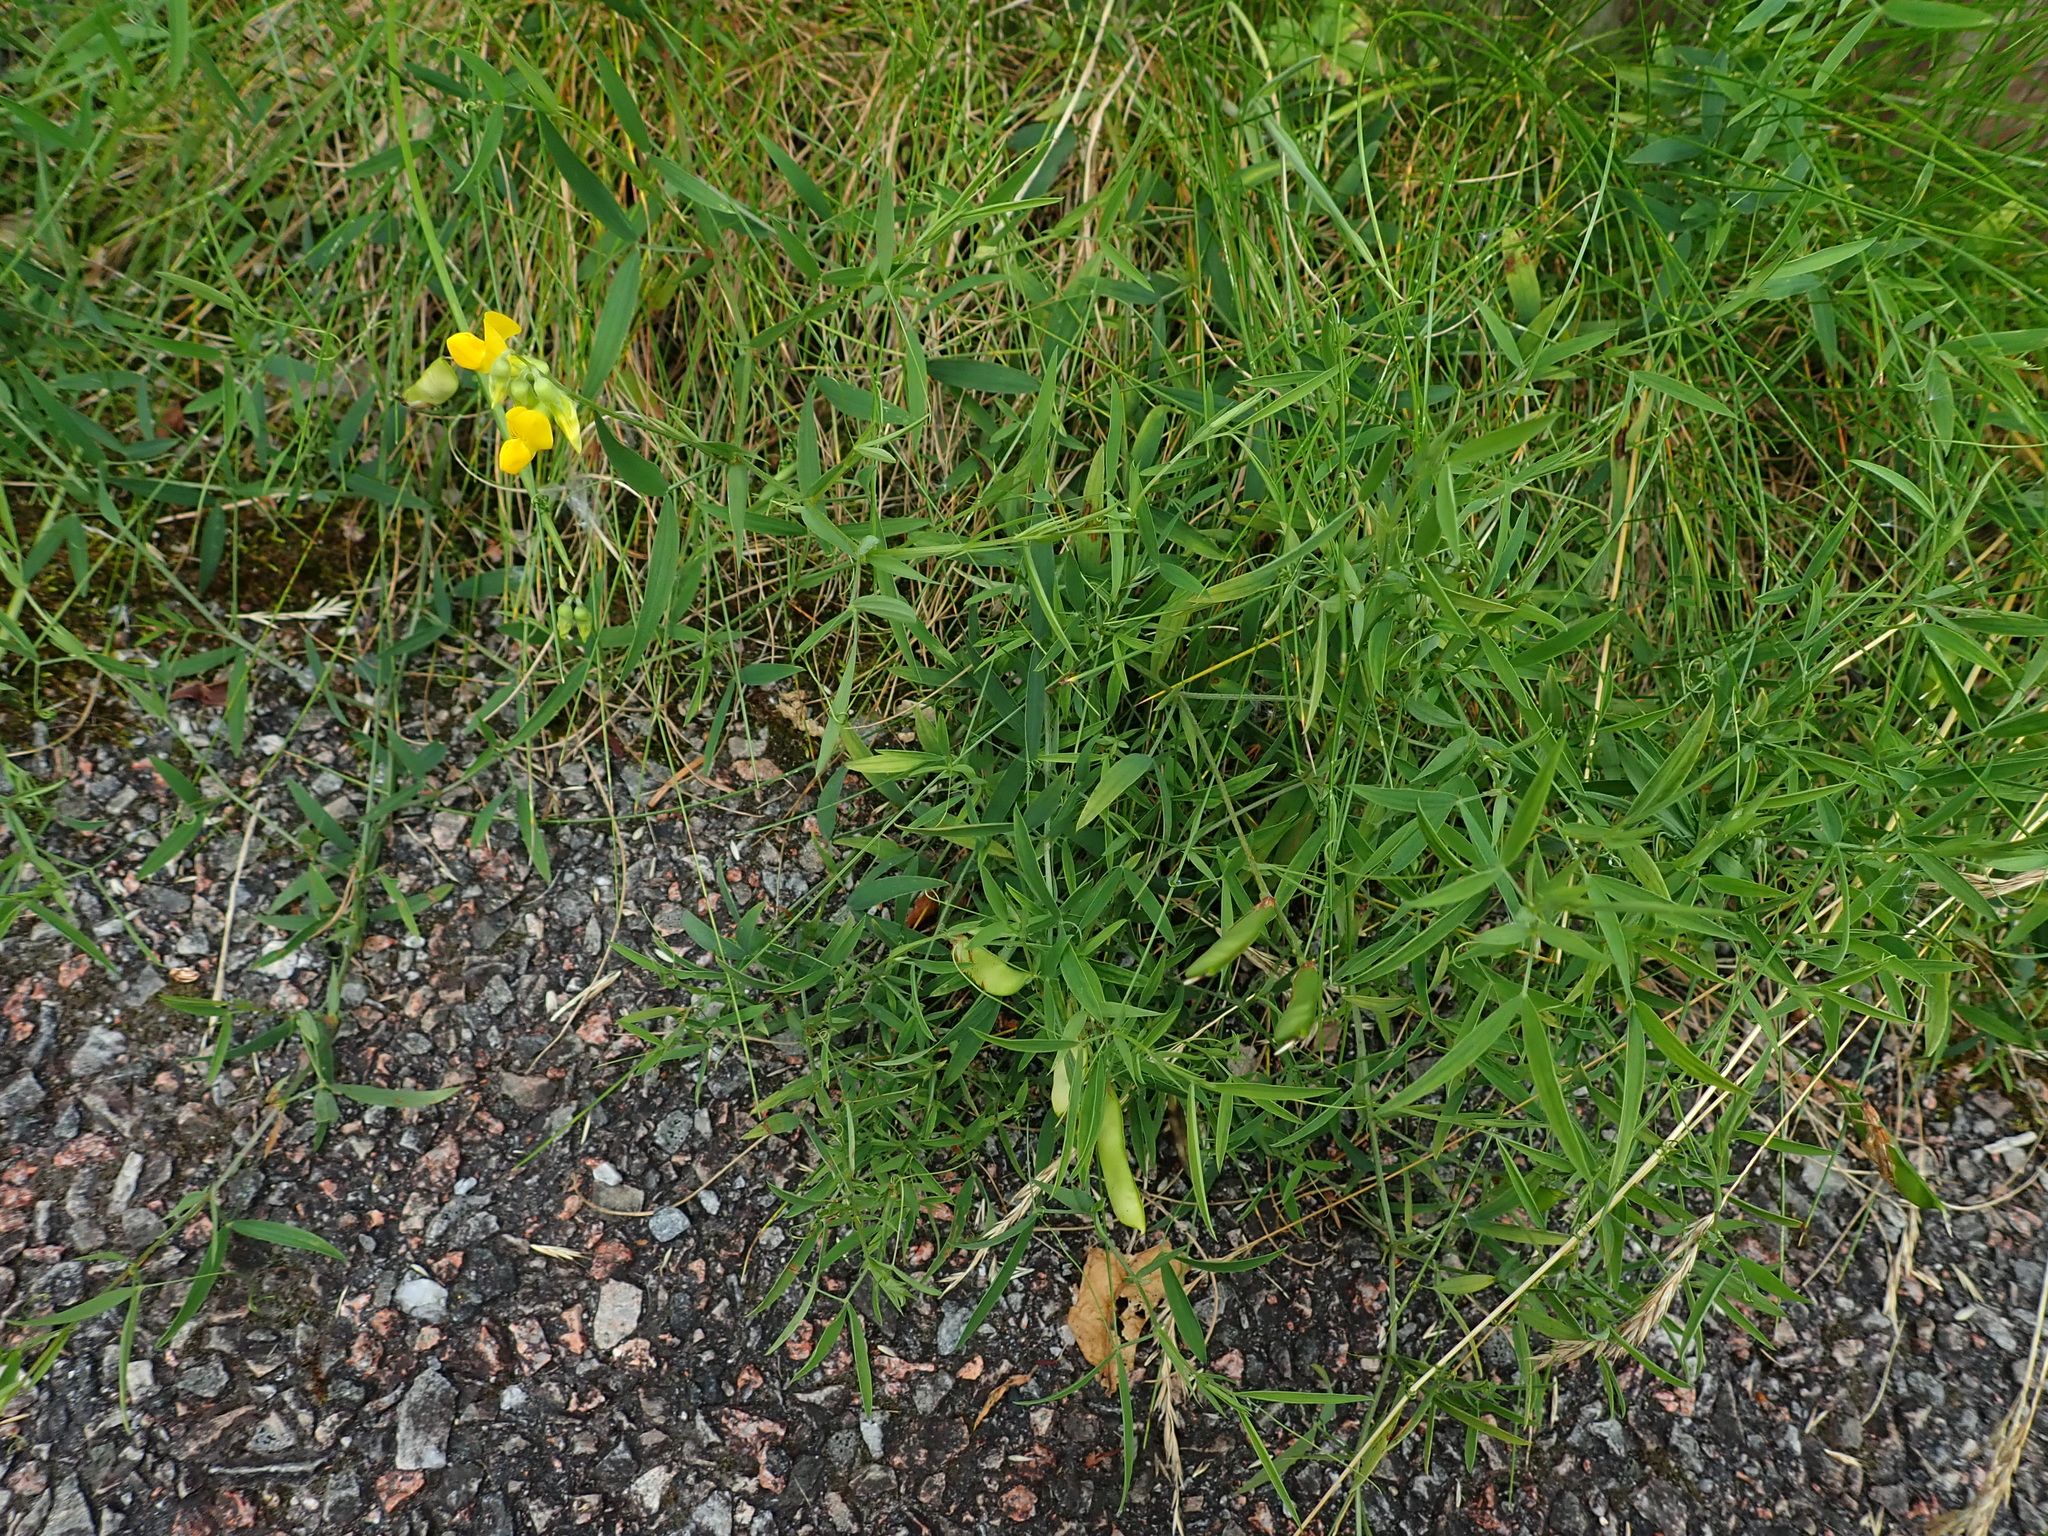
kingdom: Plantae
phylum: Tracheophyta
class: Magnoliopsida
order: Fabales
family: Fabaceae
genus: Lathyrus
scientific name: Lathyrus pratensis
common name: Meadow vetchling
